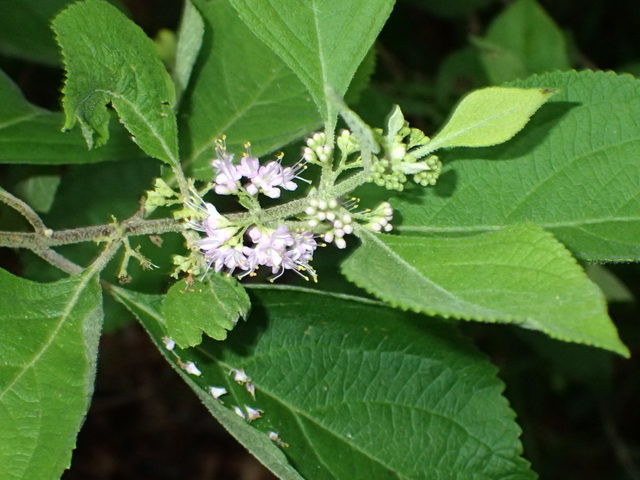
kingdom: Plantae
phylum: Tracheophyta
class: Magnoliopsida
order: Lamiales
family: Lamiaceae
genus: Callicarpa
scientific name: Callicarpa americana
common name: American beautyberry
